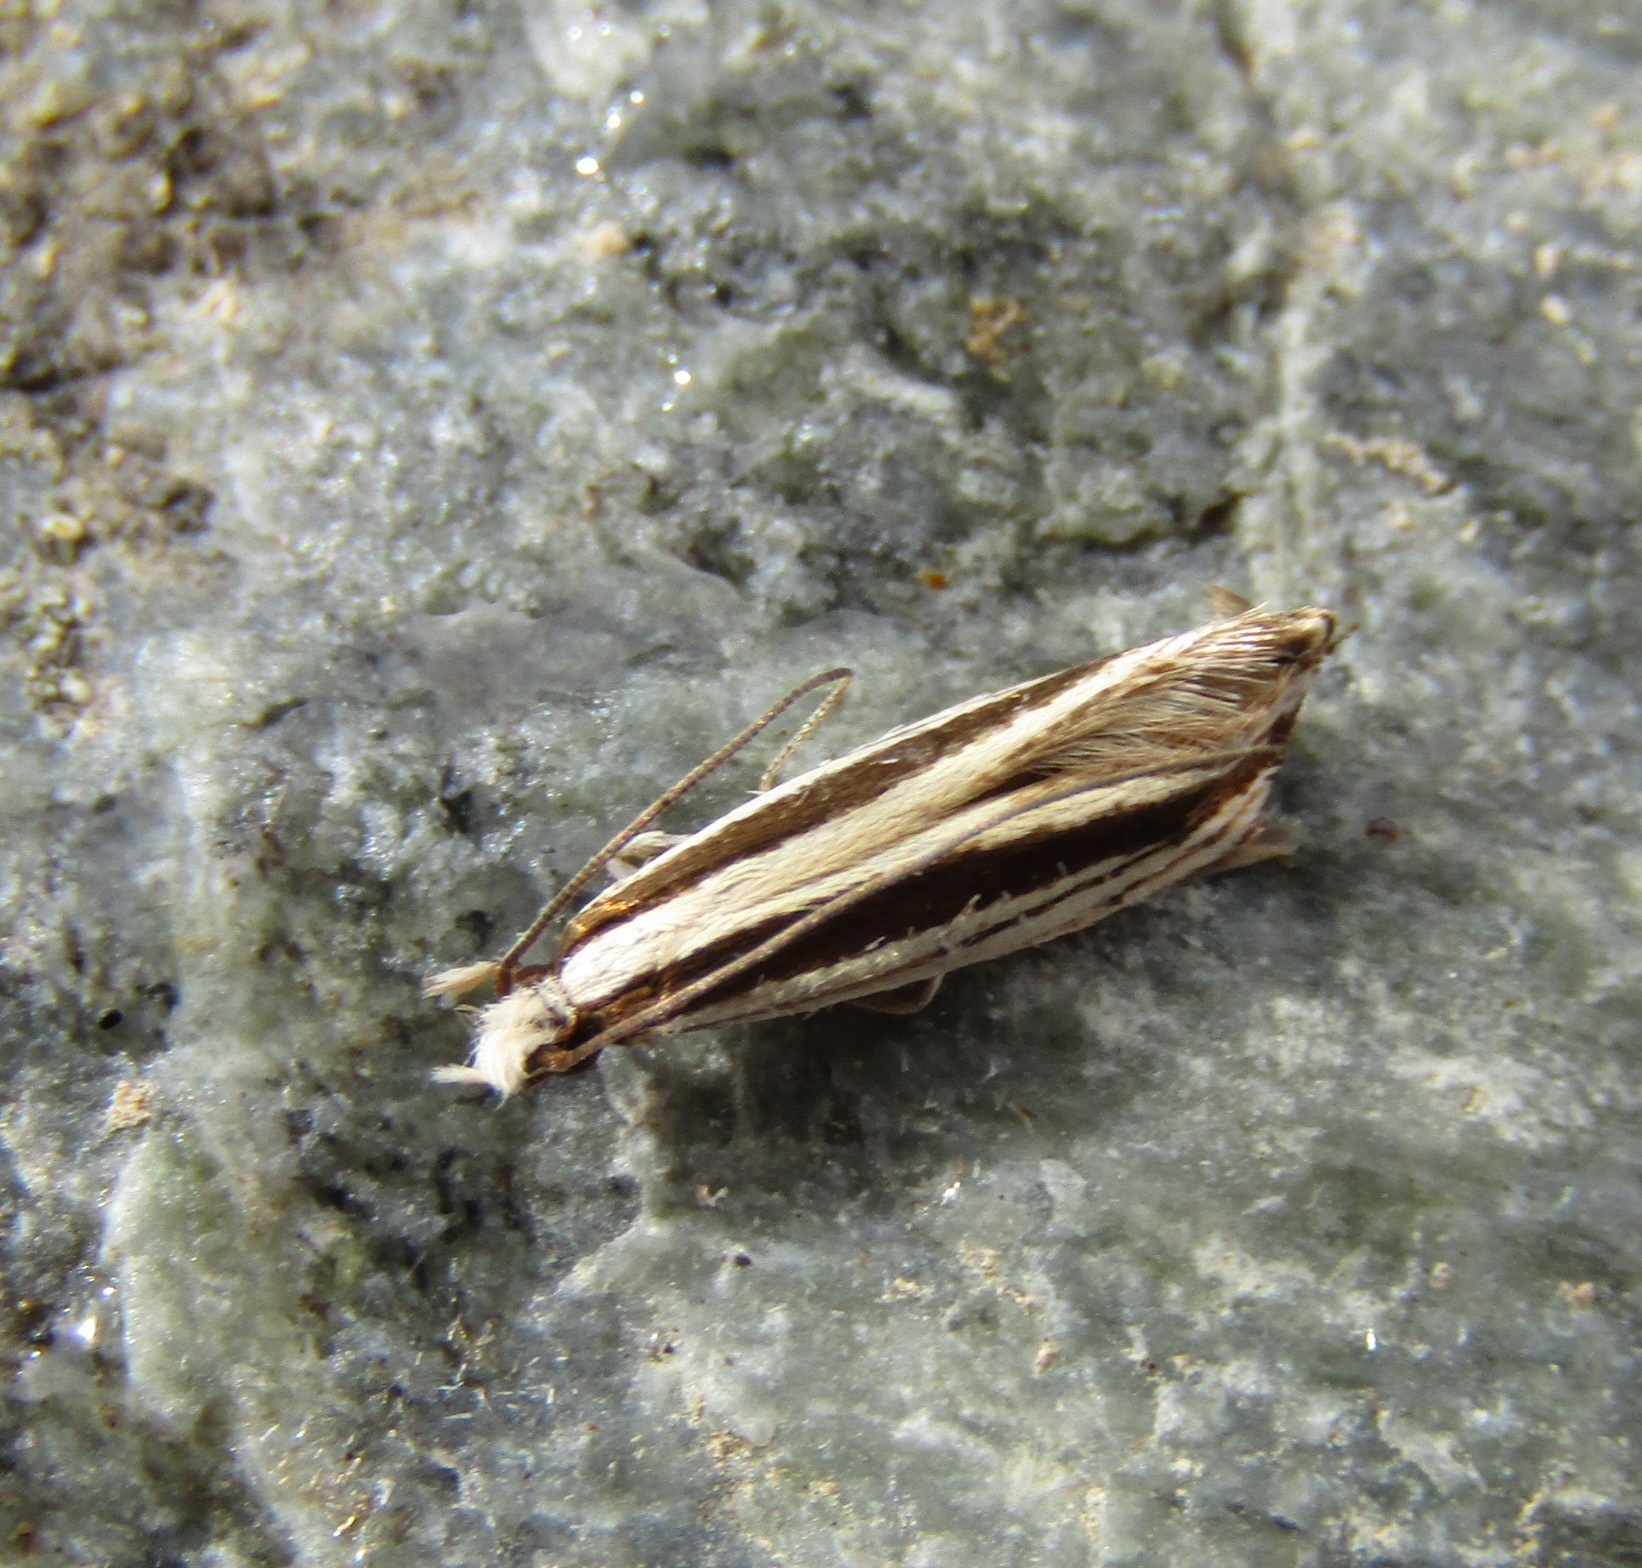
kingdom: Animalia
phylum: Arthropoda
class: Insecta
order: Lepidoptera
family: Tineidae
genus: Erechthias
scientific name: Erechthias stilbella
